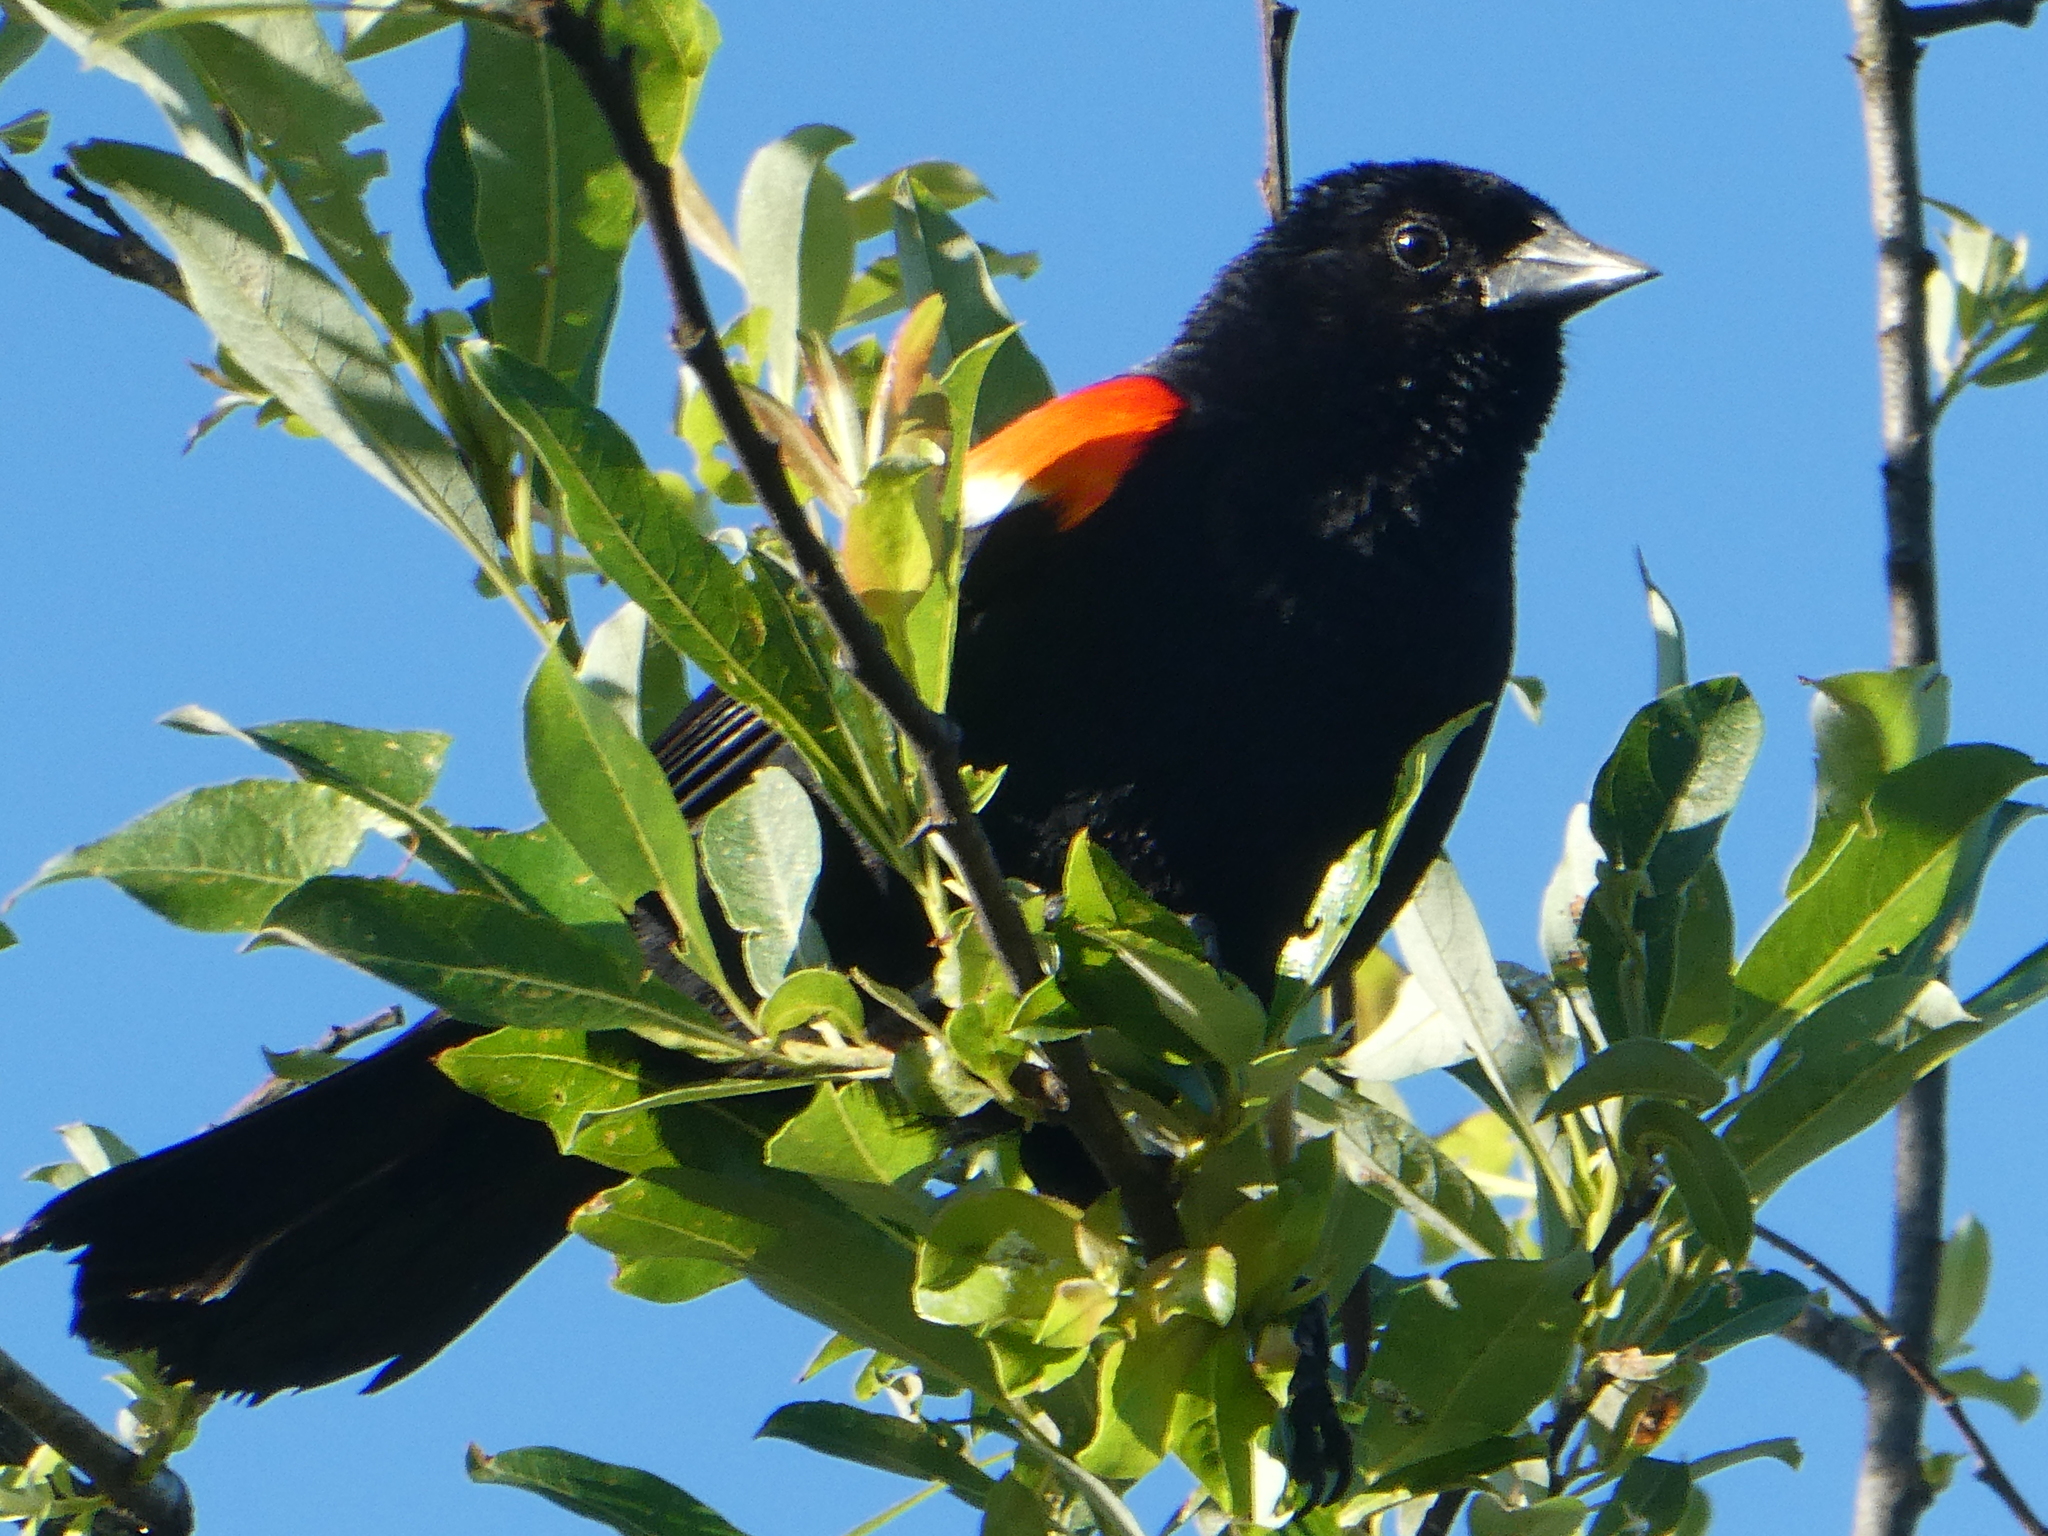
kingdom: Animalia
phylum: Chordata
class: Aves
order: Passeriformes
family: Icteridae
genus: Agelaius
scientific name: Agelaius phoeniceus
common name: Red-winged blackbird
